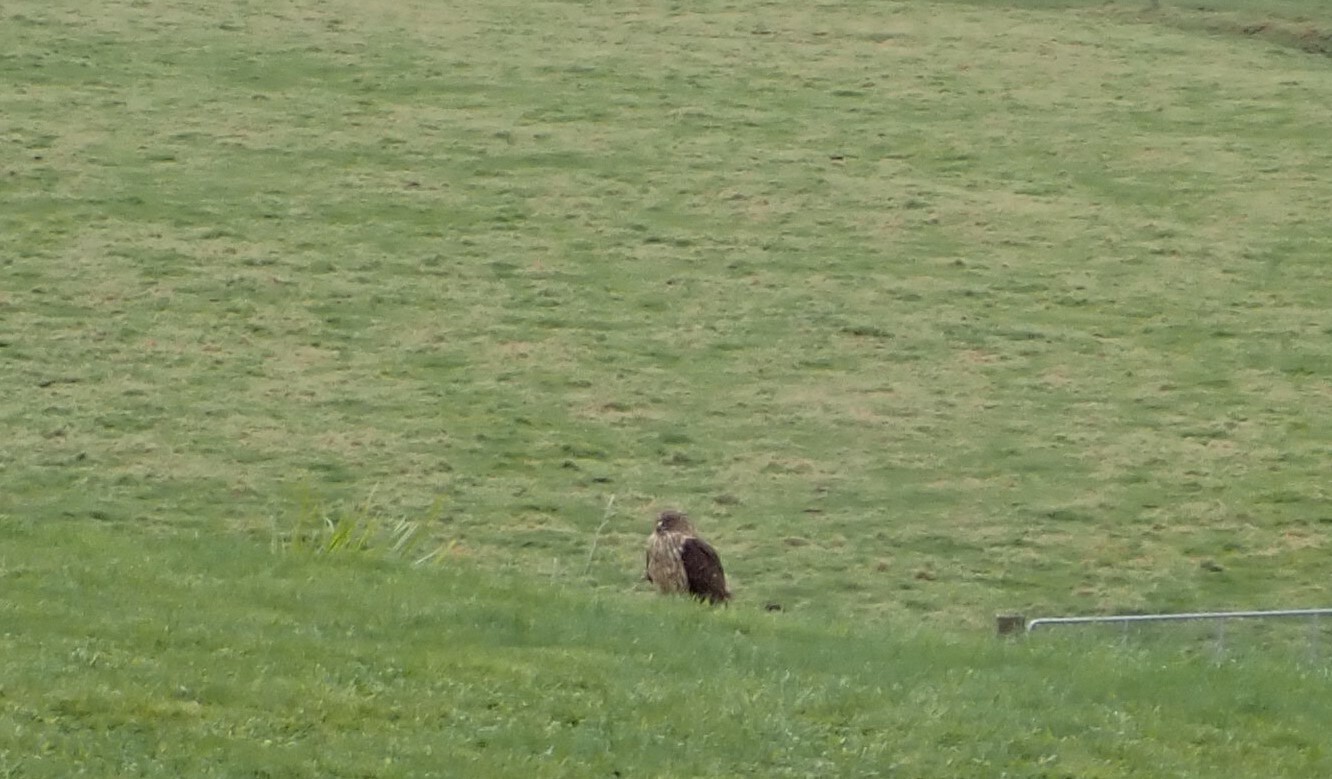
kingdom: Animalia
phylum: Chordata
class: Aves
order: Accipitriformes
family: Accipitridae
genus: Circus
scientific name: Circus approximans
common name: Swamp harrier
